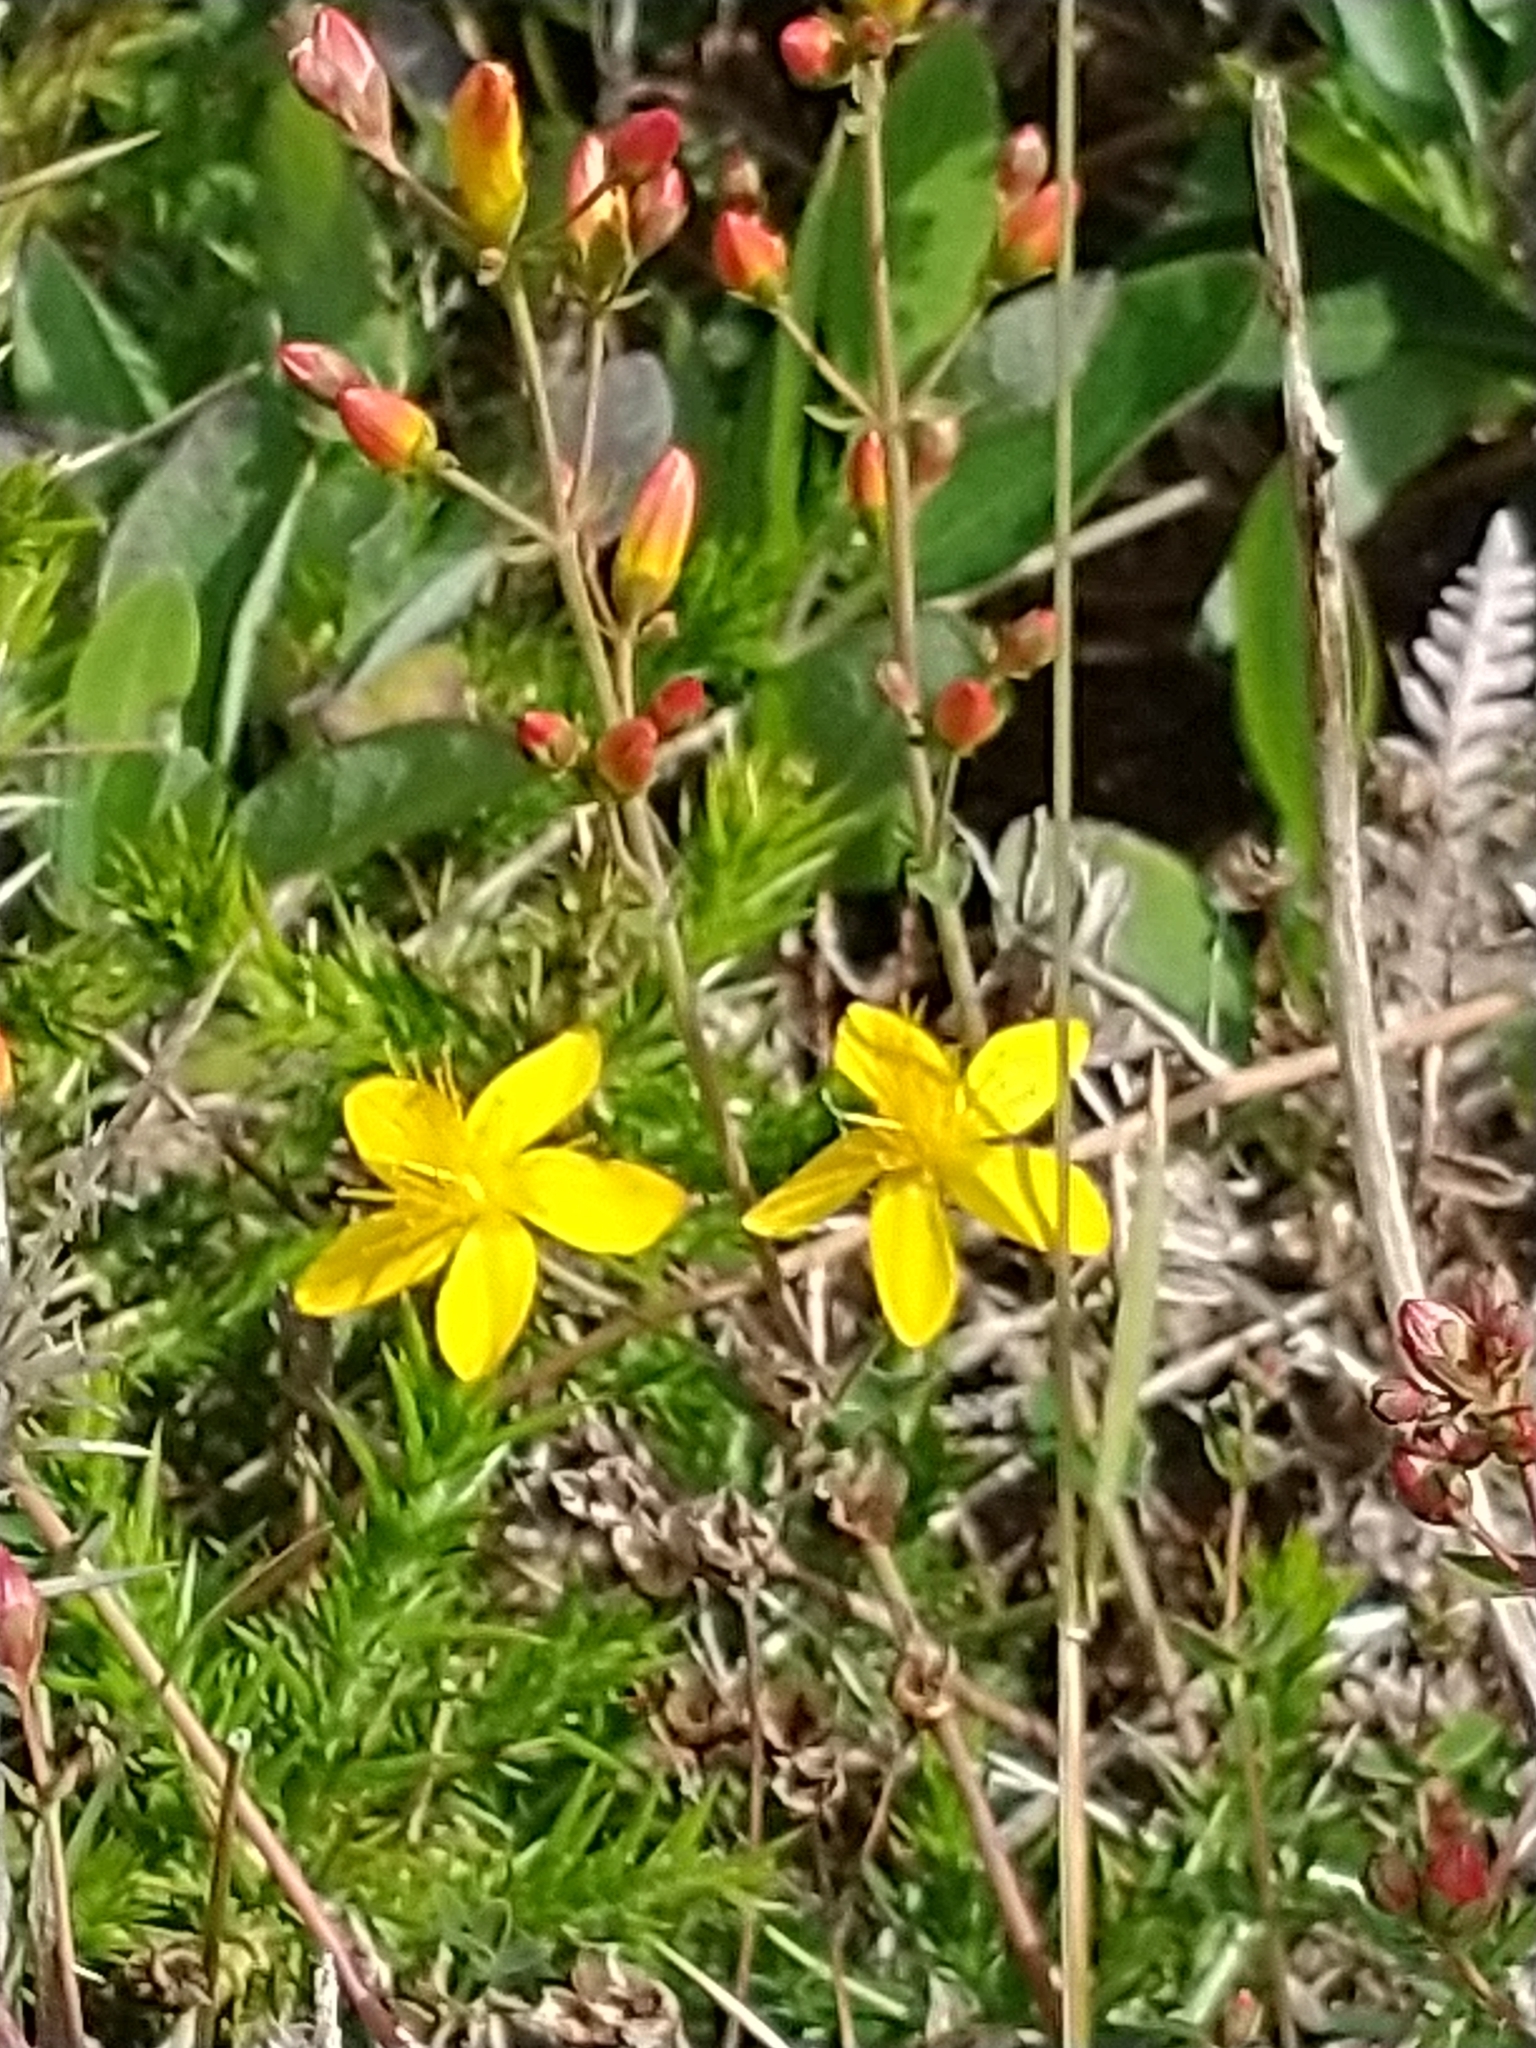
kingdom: Plantae
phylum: Tracheophyta
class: Magnoliopsida
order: Malpighiales
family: Hypericaceae
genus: Hypericum
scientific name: Hypericum pulchrum
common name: Slender st. john's-wort
